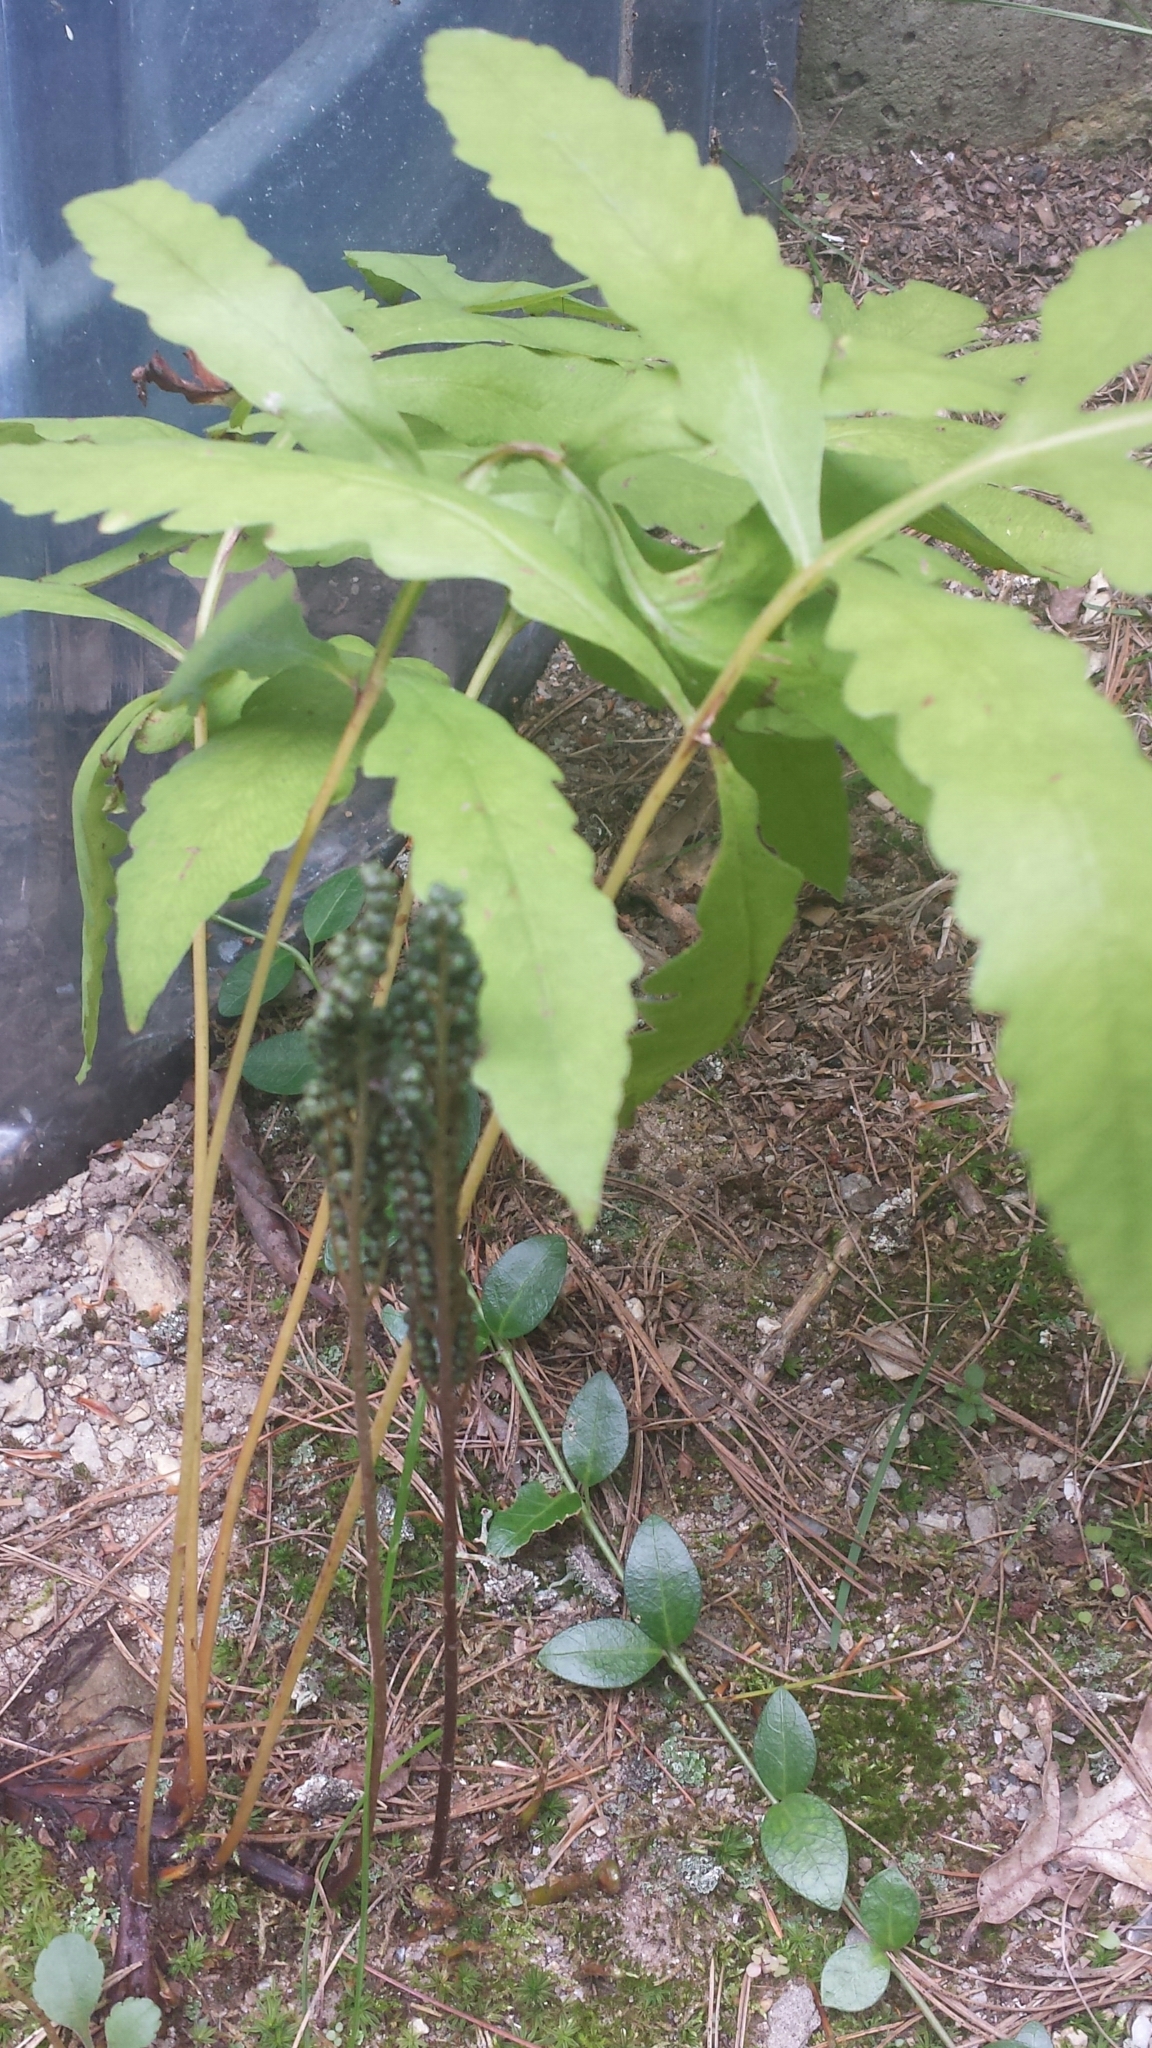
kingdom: Plantae
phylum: Tracheophyta
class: Polypodiopsida
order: Polypodiales
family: Onocleaceae
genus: Onoclea
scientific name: Onoclea sensibilis
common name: Sensitive fern
